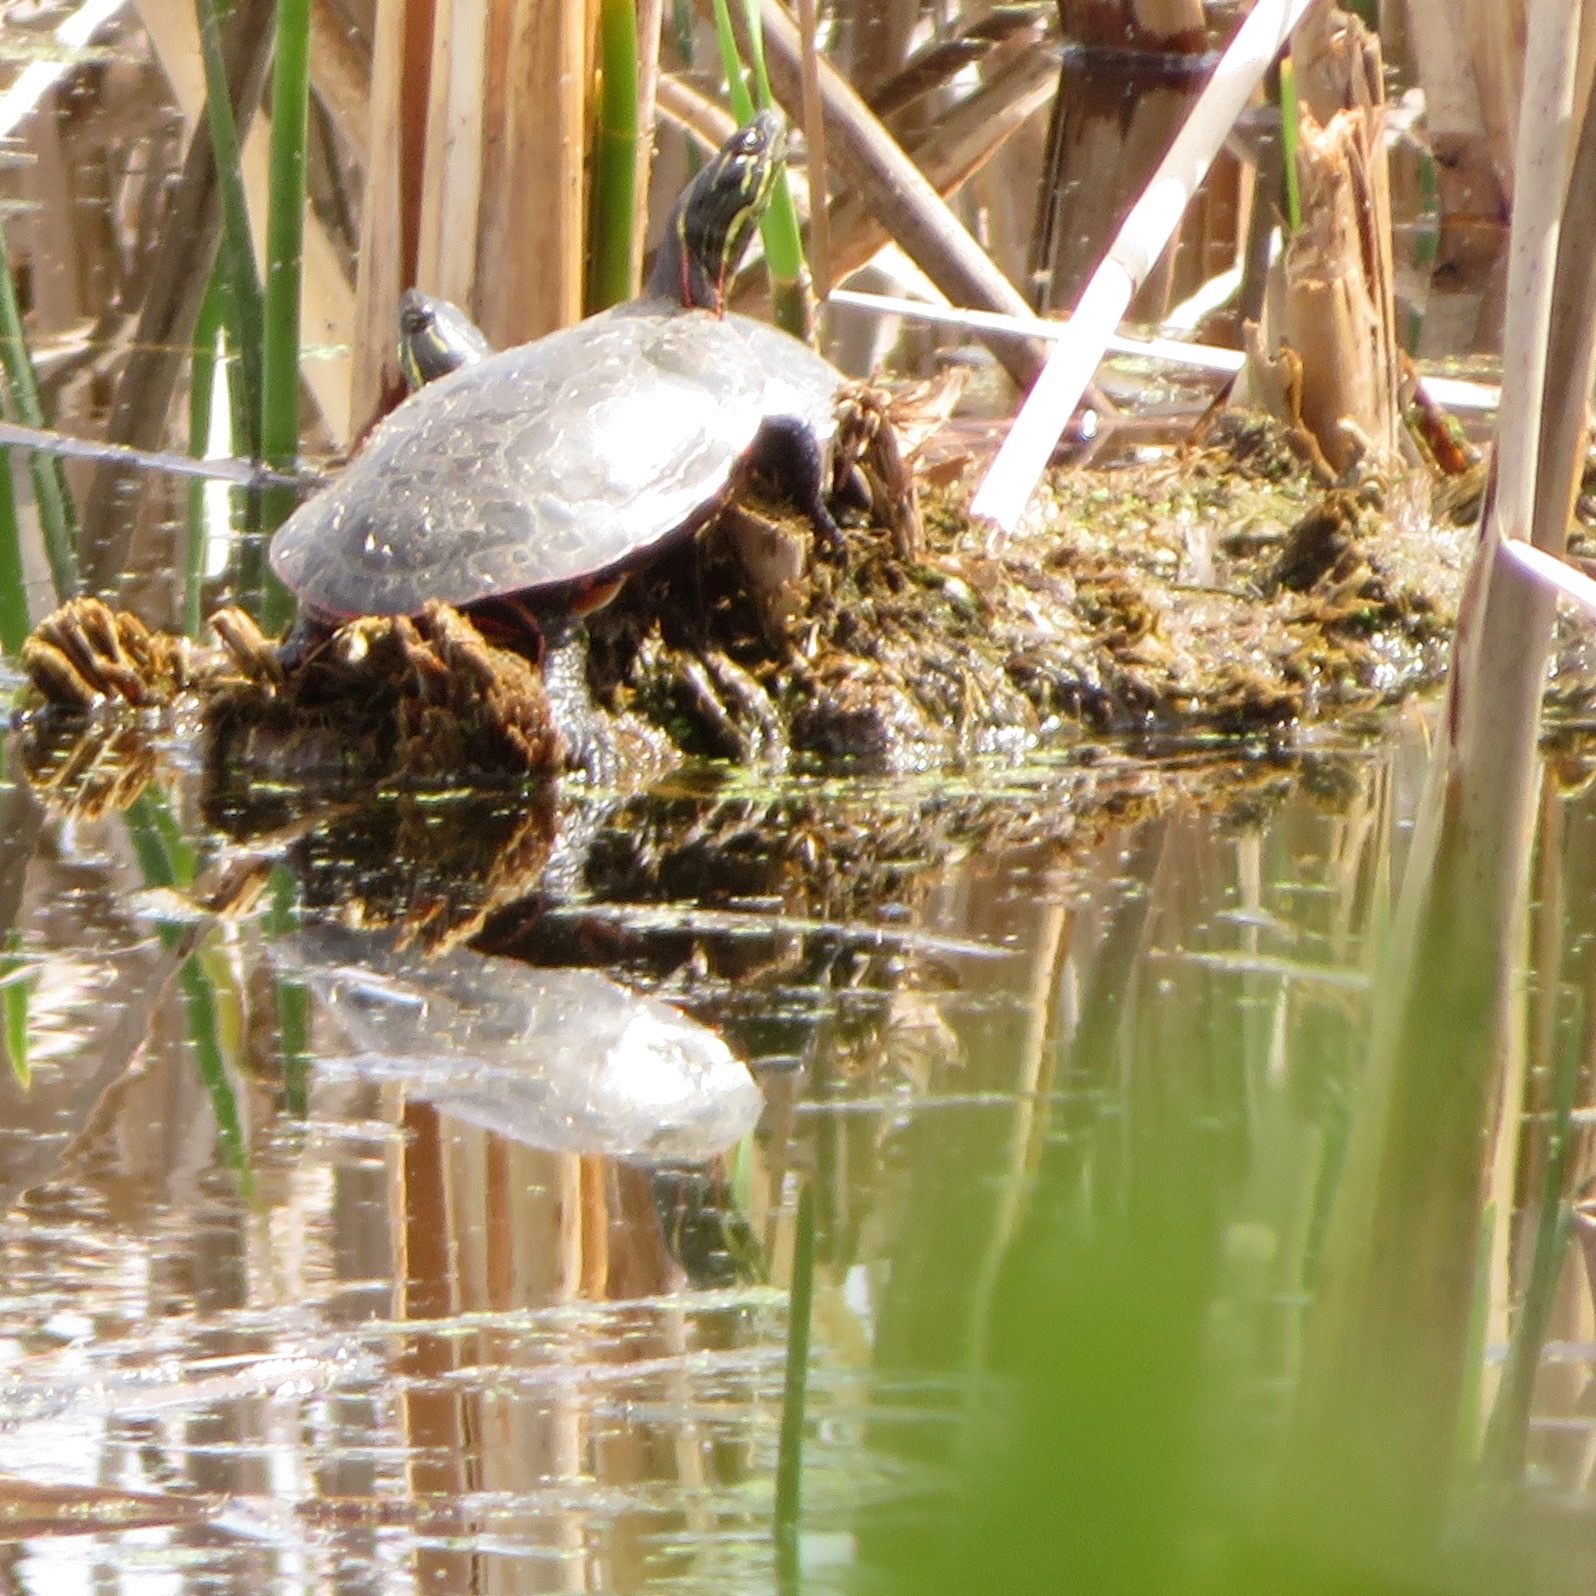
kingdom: Animalia
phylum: Chordata
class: Testudines
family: Emydidae
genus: Chrysemys
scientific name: Chrysemys picta
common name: Painted turtle
